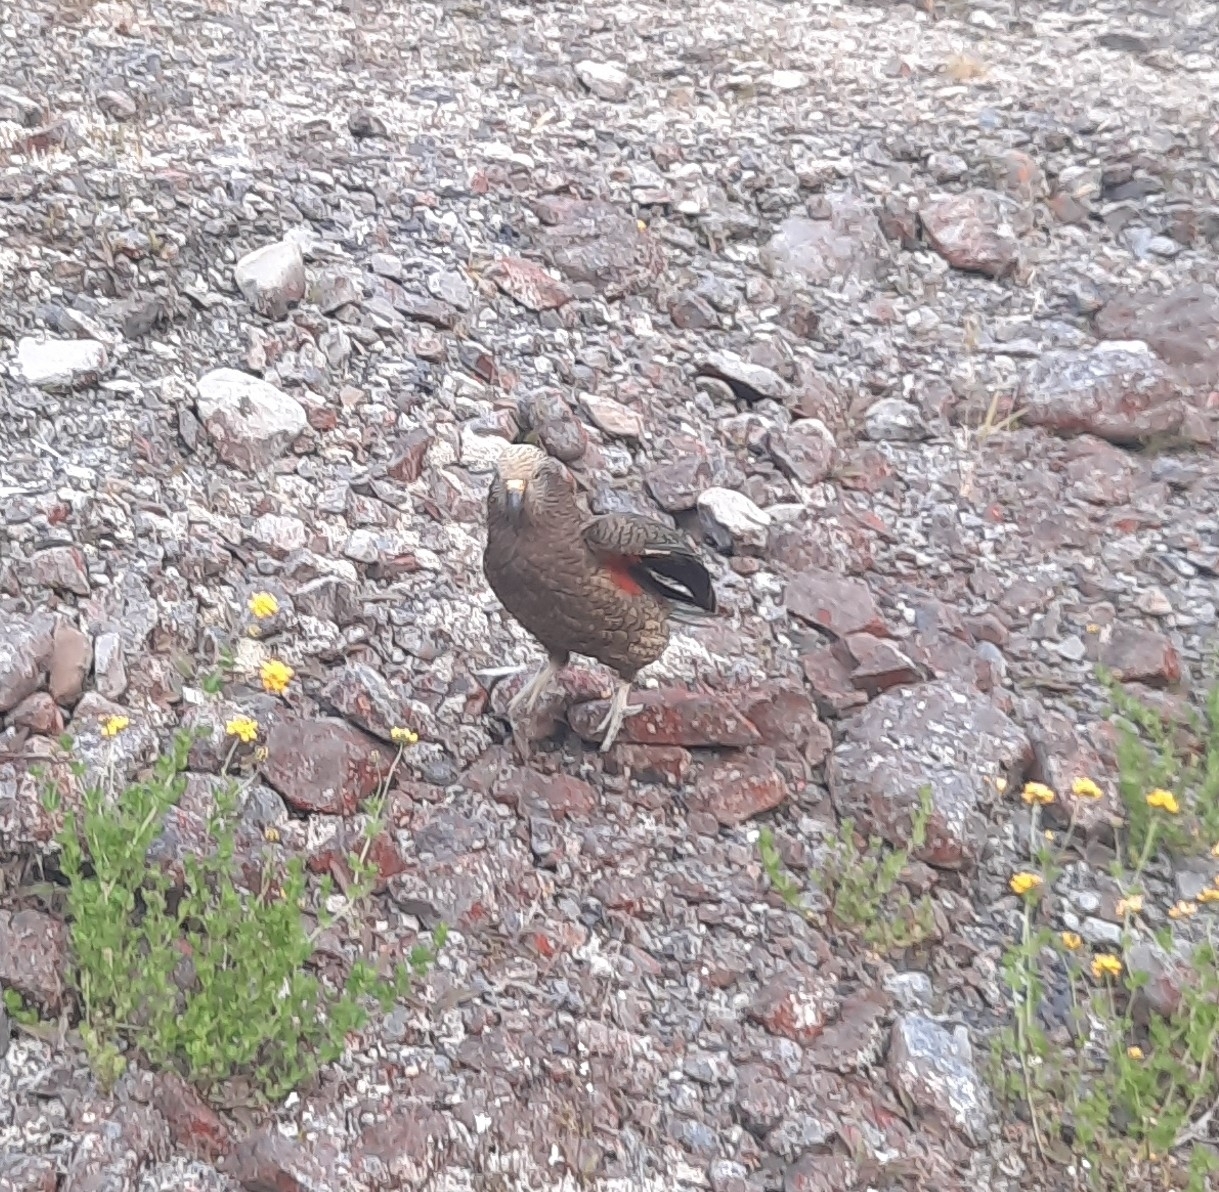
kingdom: Animalia
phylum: Chordata
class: Aves
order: Psittaciformes
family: Psittacidae
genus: Nestor
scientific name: Nestor notabilis
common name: Kea
